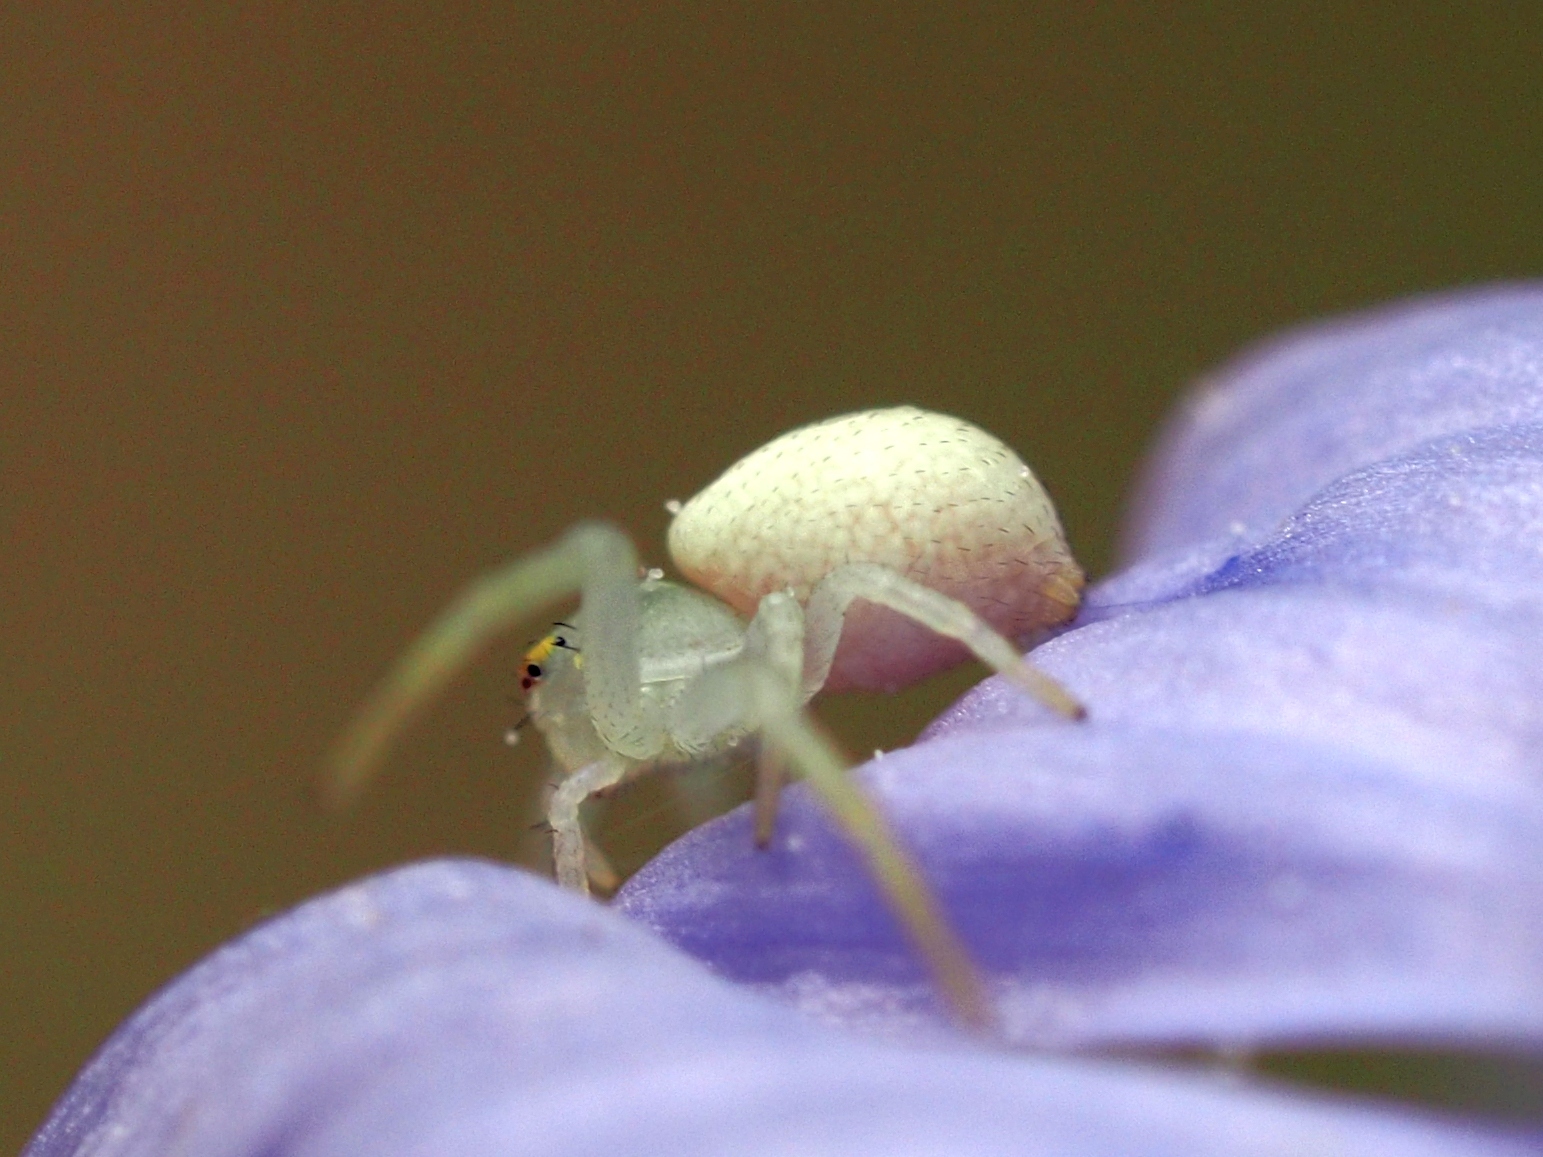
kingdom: Animalia
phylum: Arthropoda
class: Arachnida
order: Araneae
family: Thomisidae
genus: Misumena
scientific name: Misumena vatia
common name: Goldenrod crab spider
